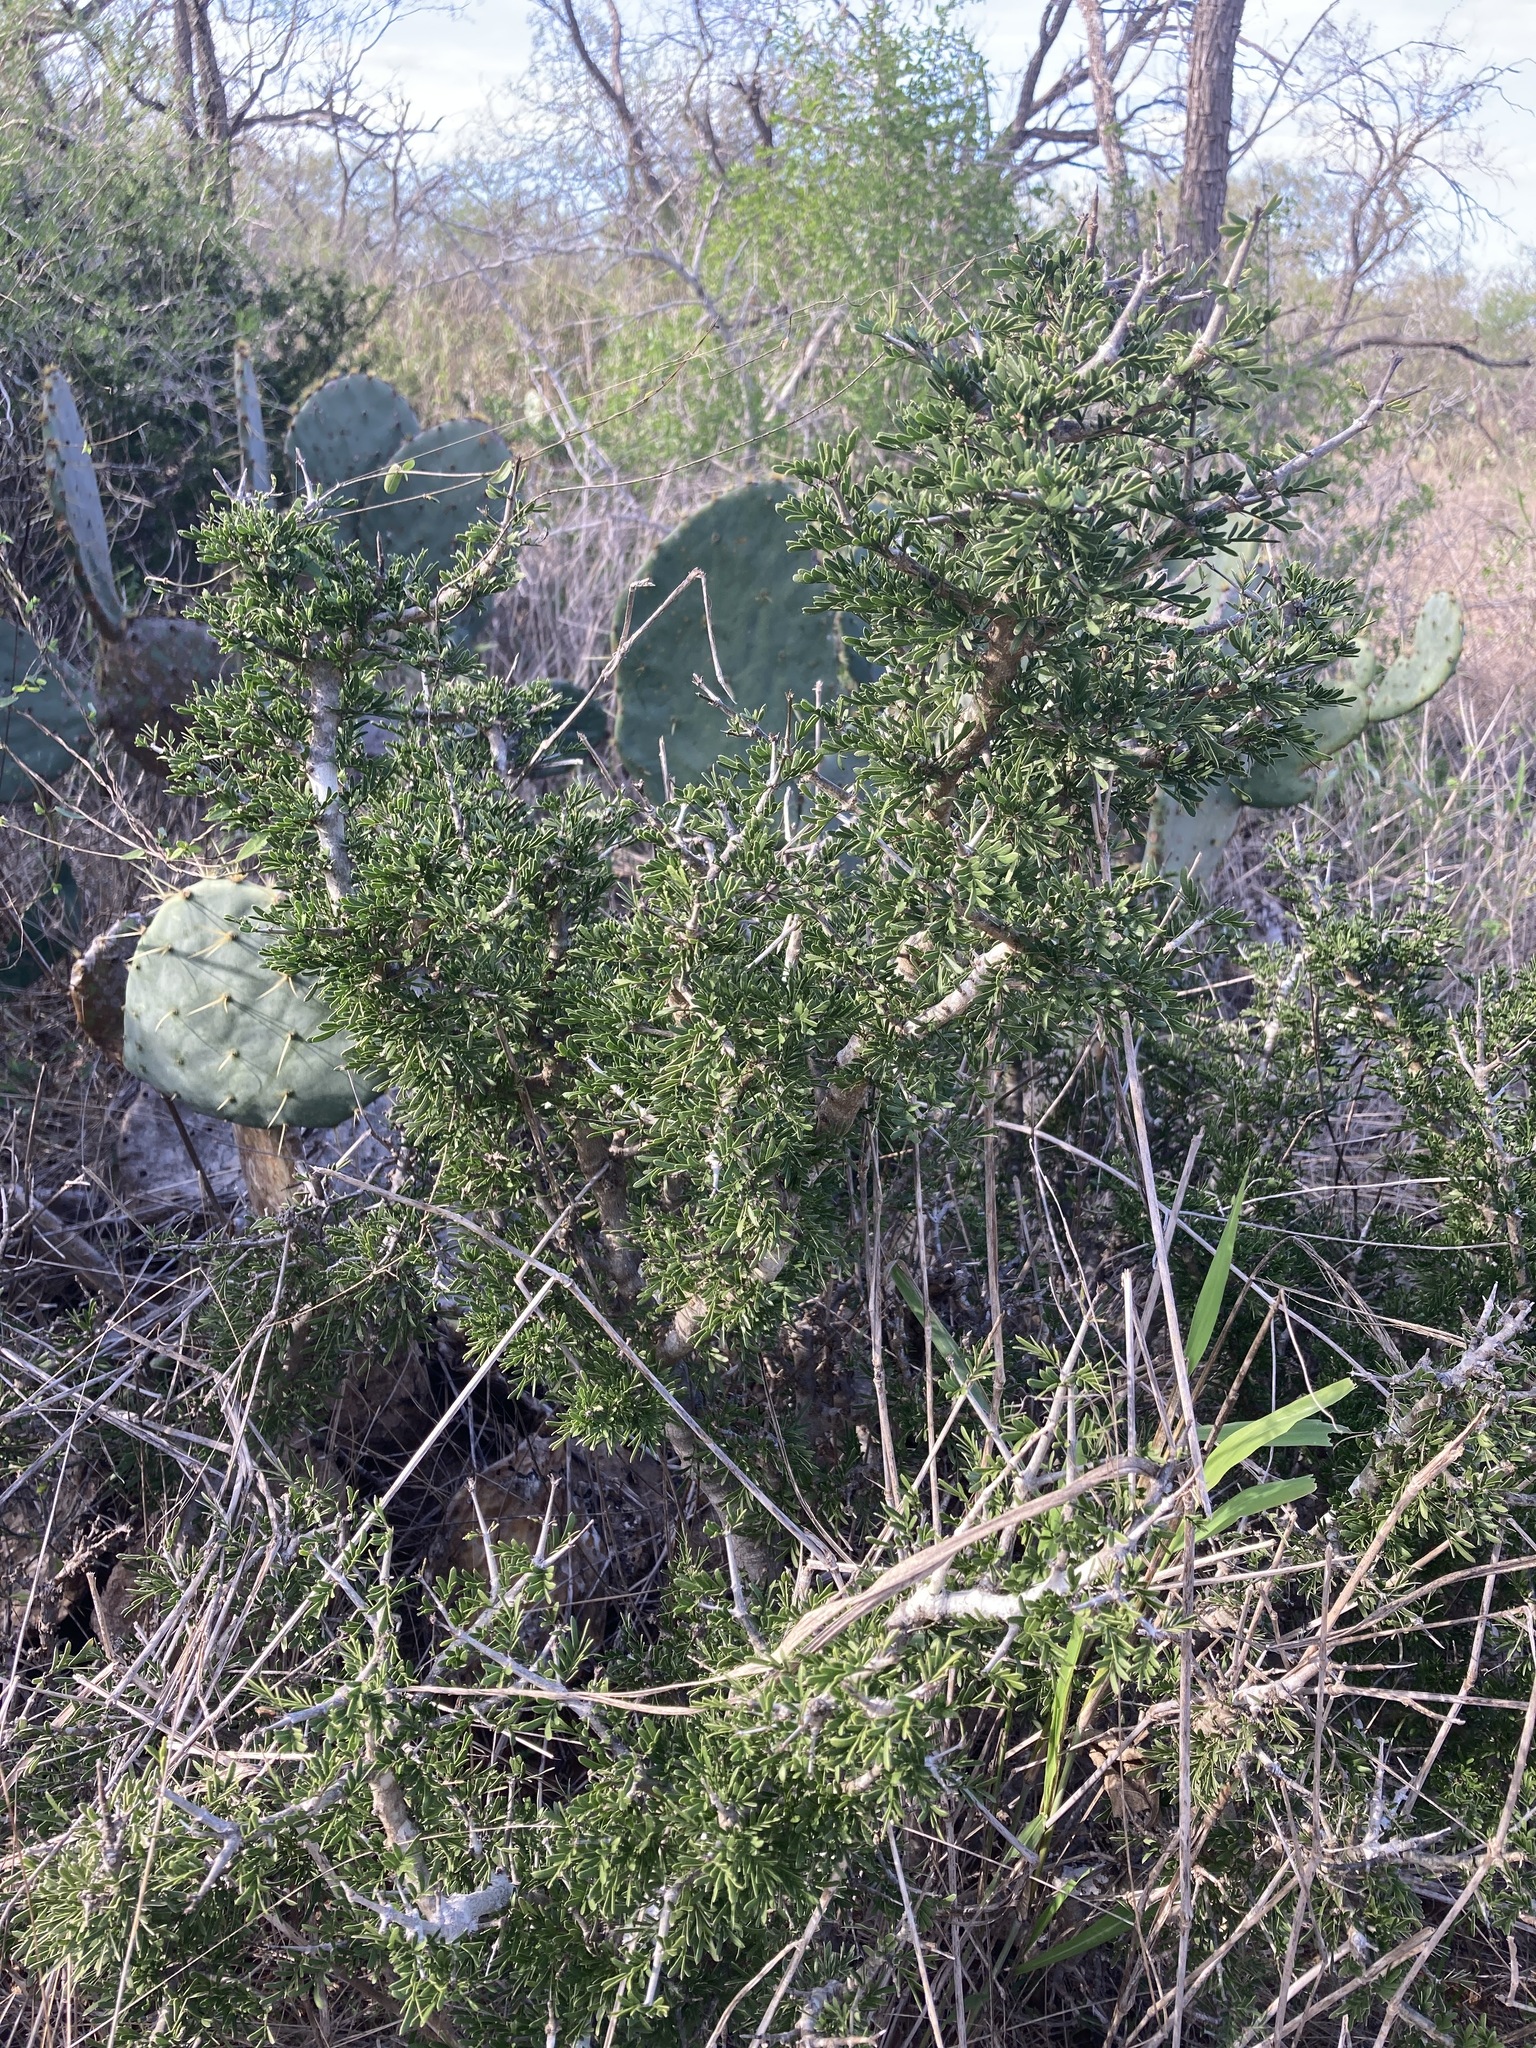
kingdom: Plantae
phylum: Tracheophyta
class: Magnoliopsida
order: Zygophyllales
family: Zygophyllaceae
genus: Porlieria
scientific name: Porlieria angustifolia
